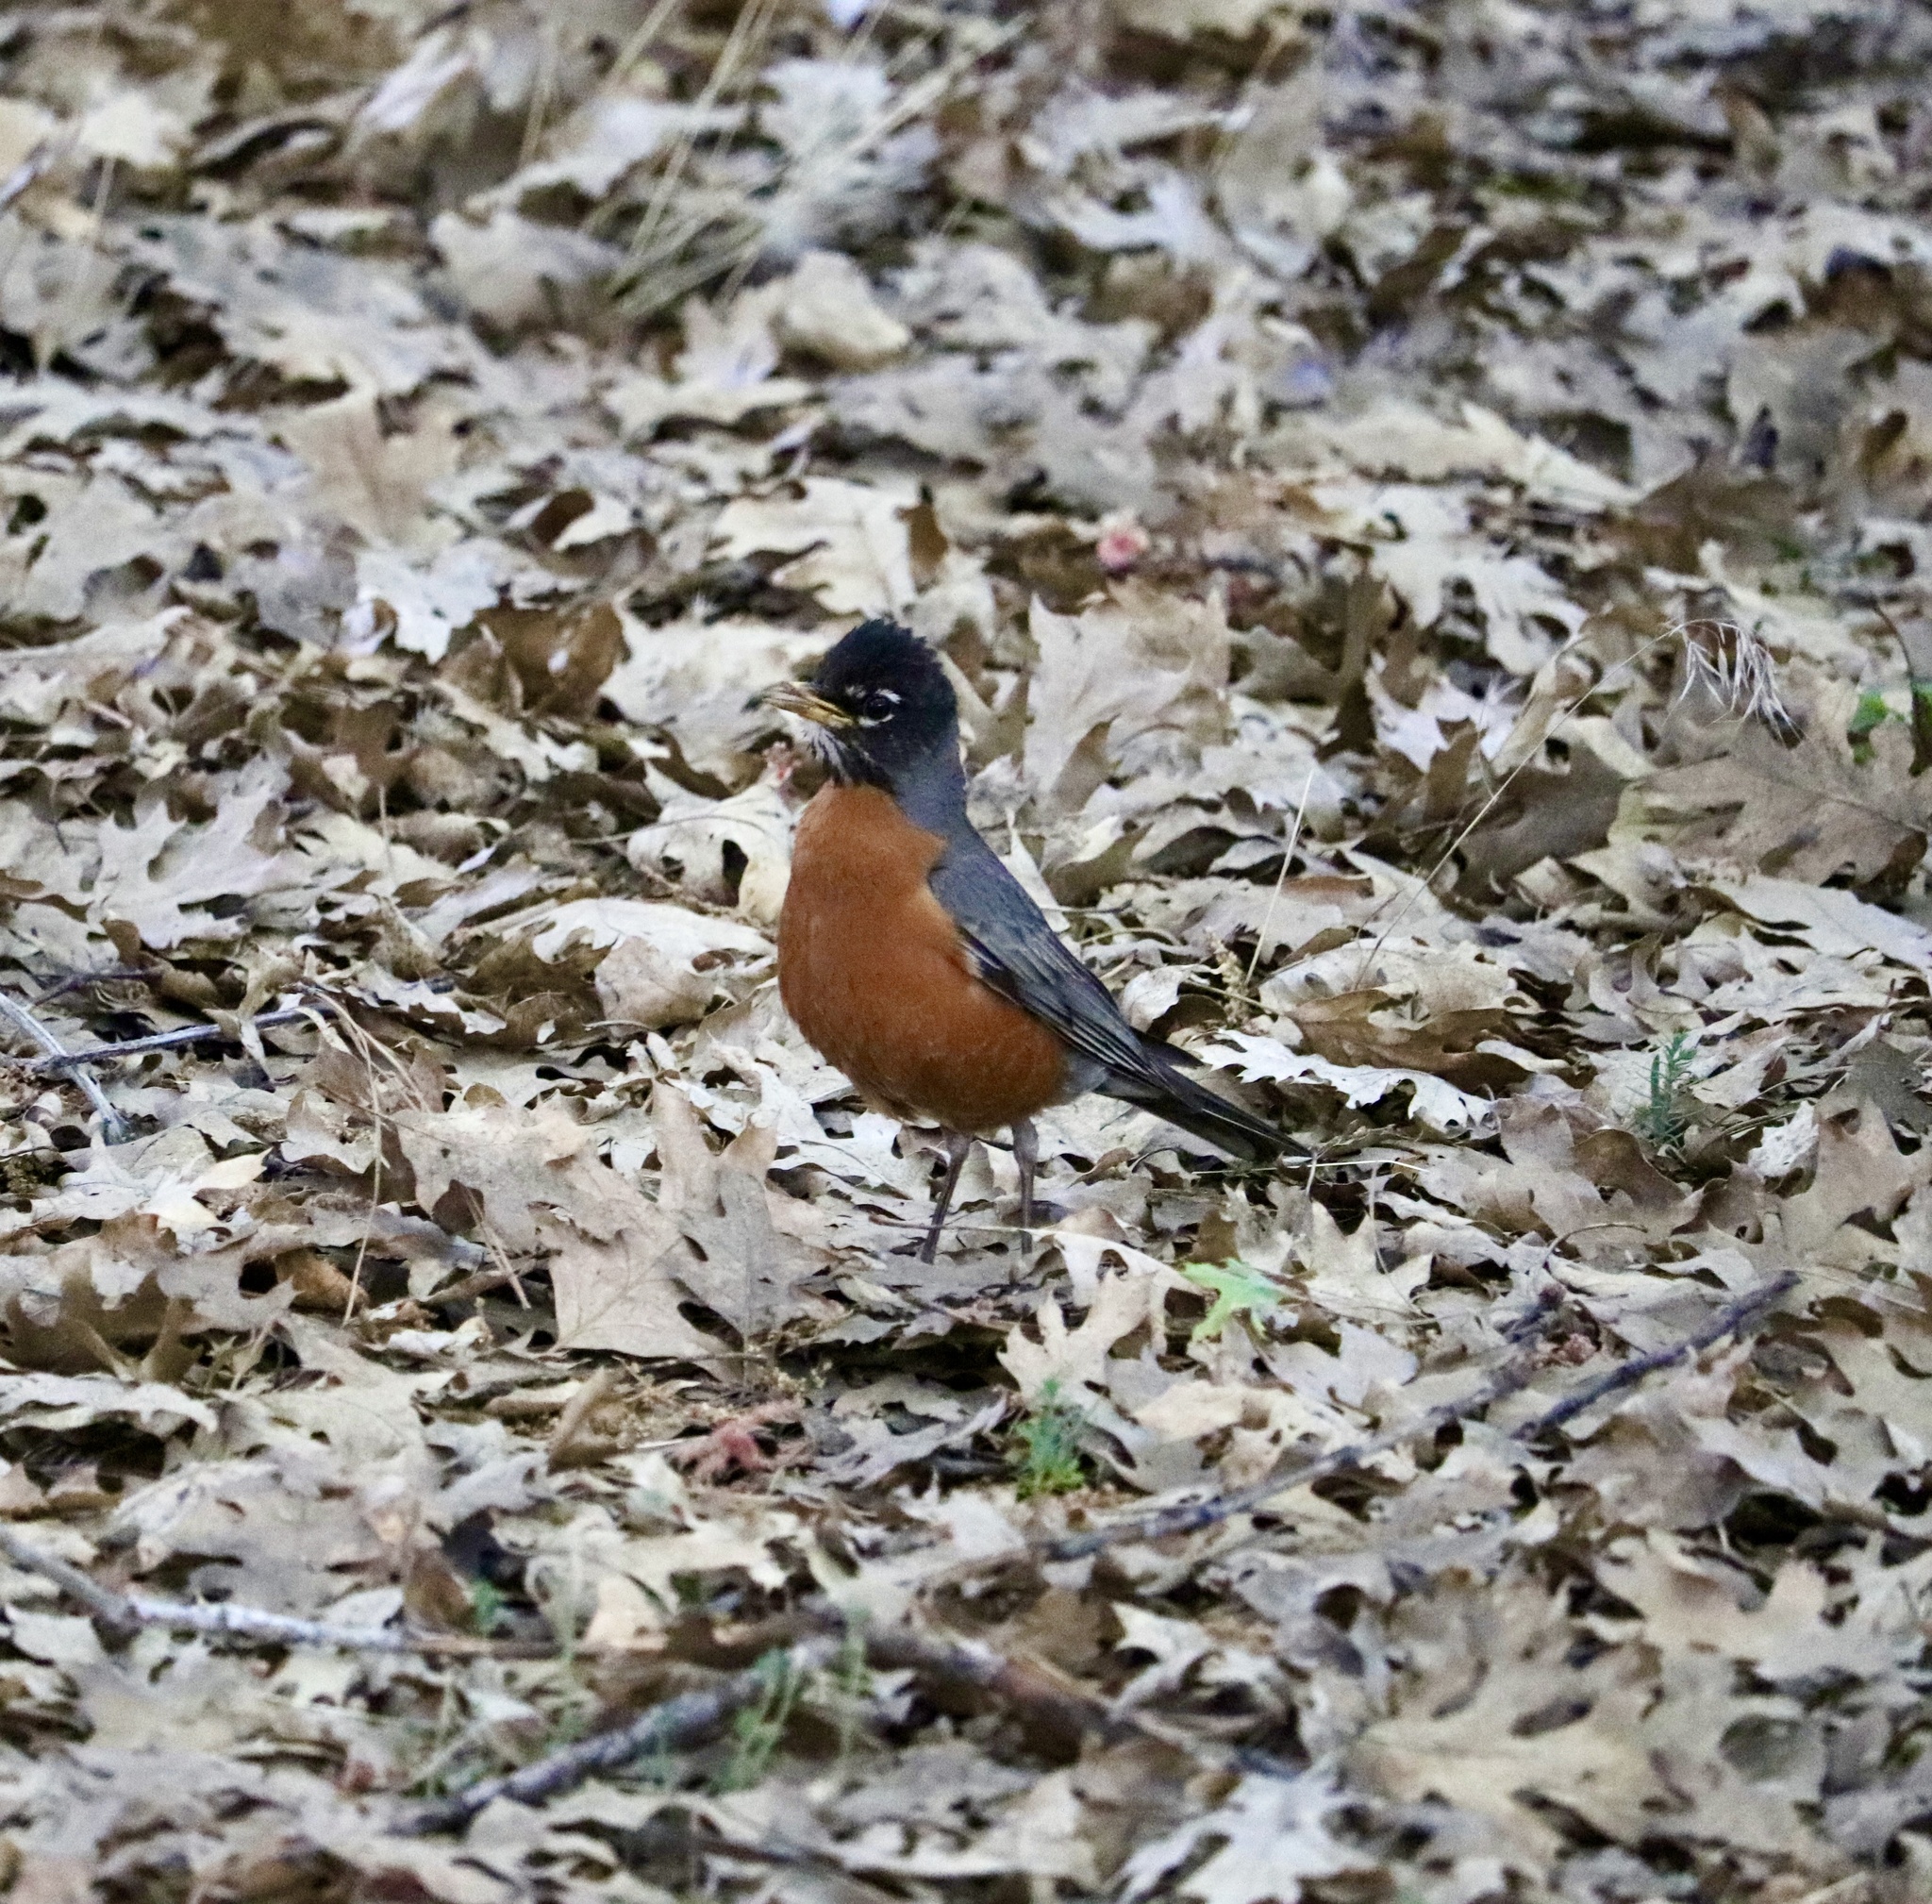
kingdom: Animalia
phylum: Chordata
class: Aves
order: Passeriformes
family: Turdidae
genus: Turdus
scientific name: Turdus migratorius
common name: American robin
